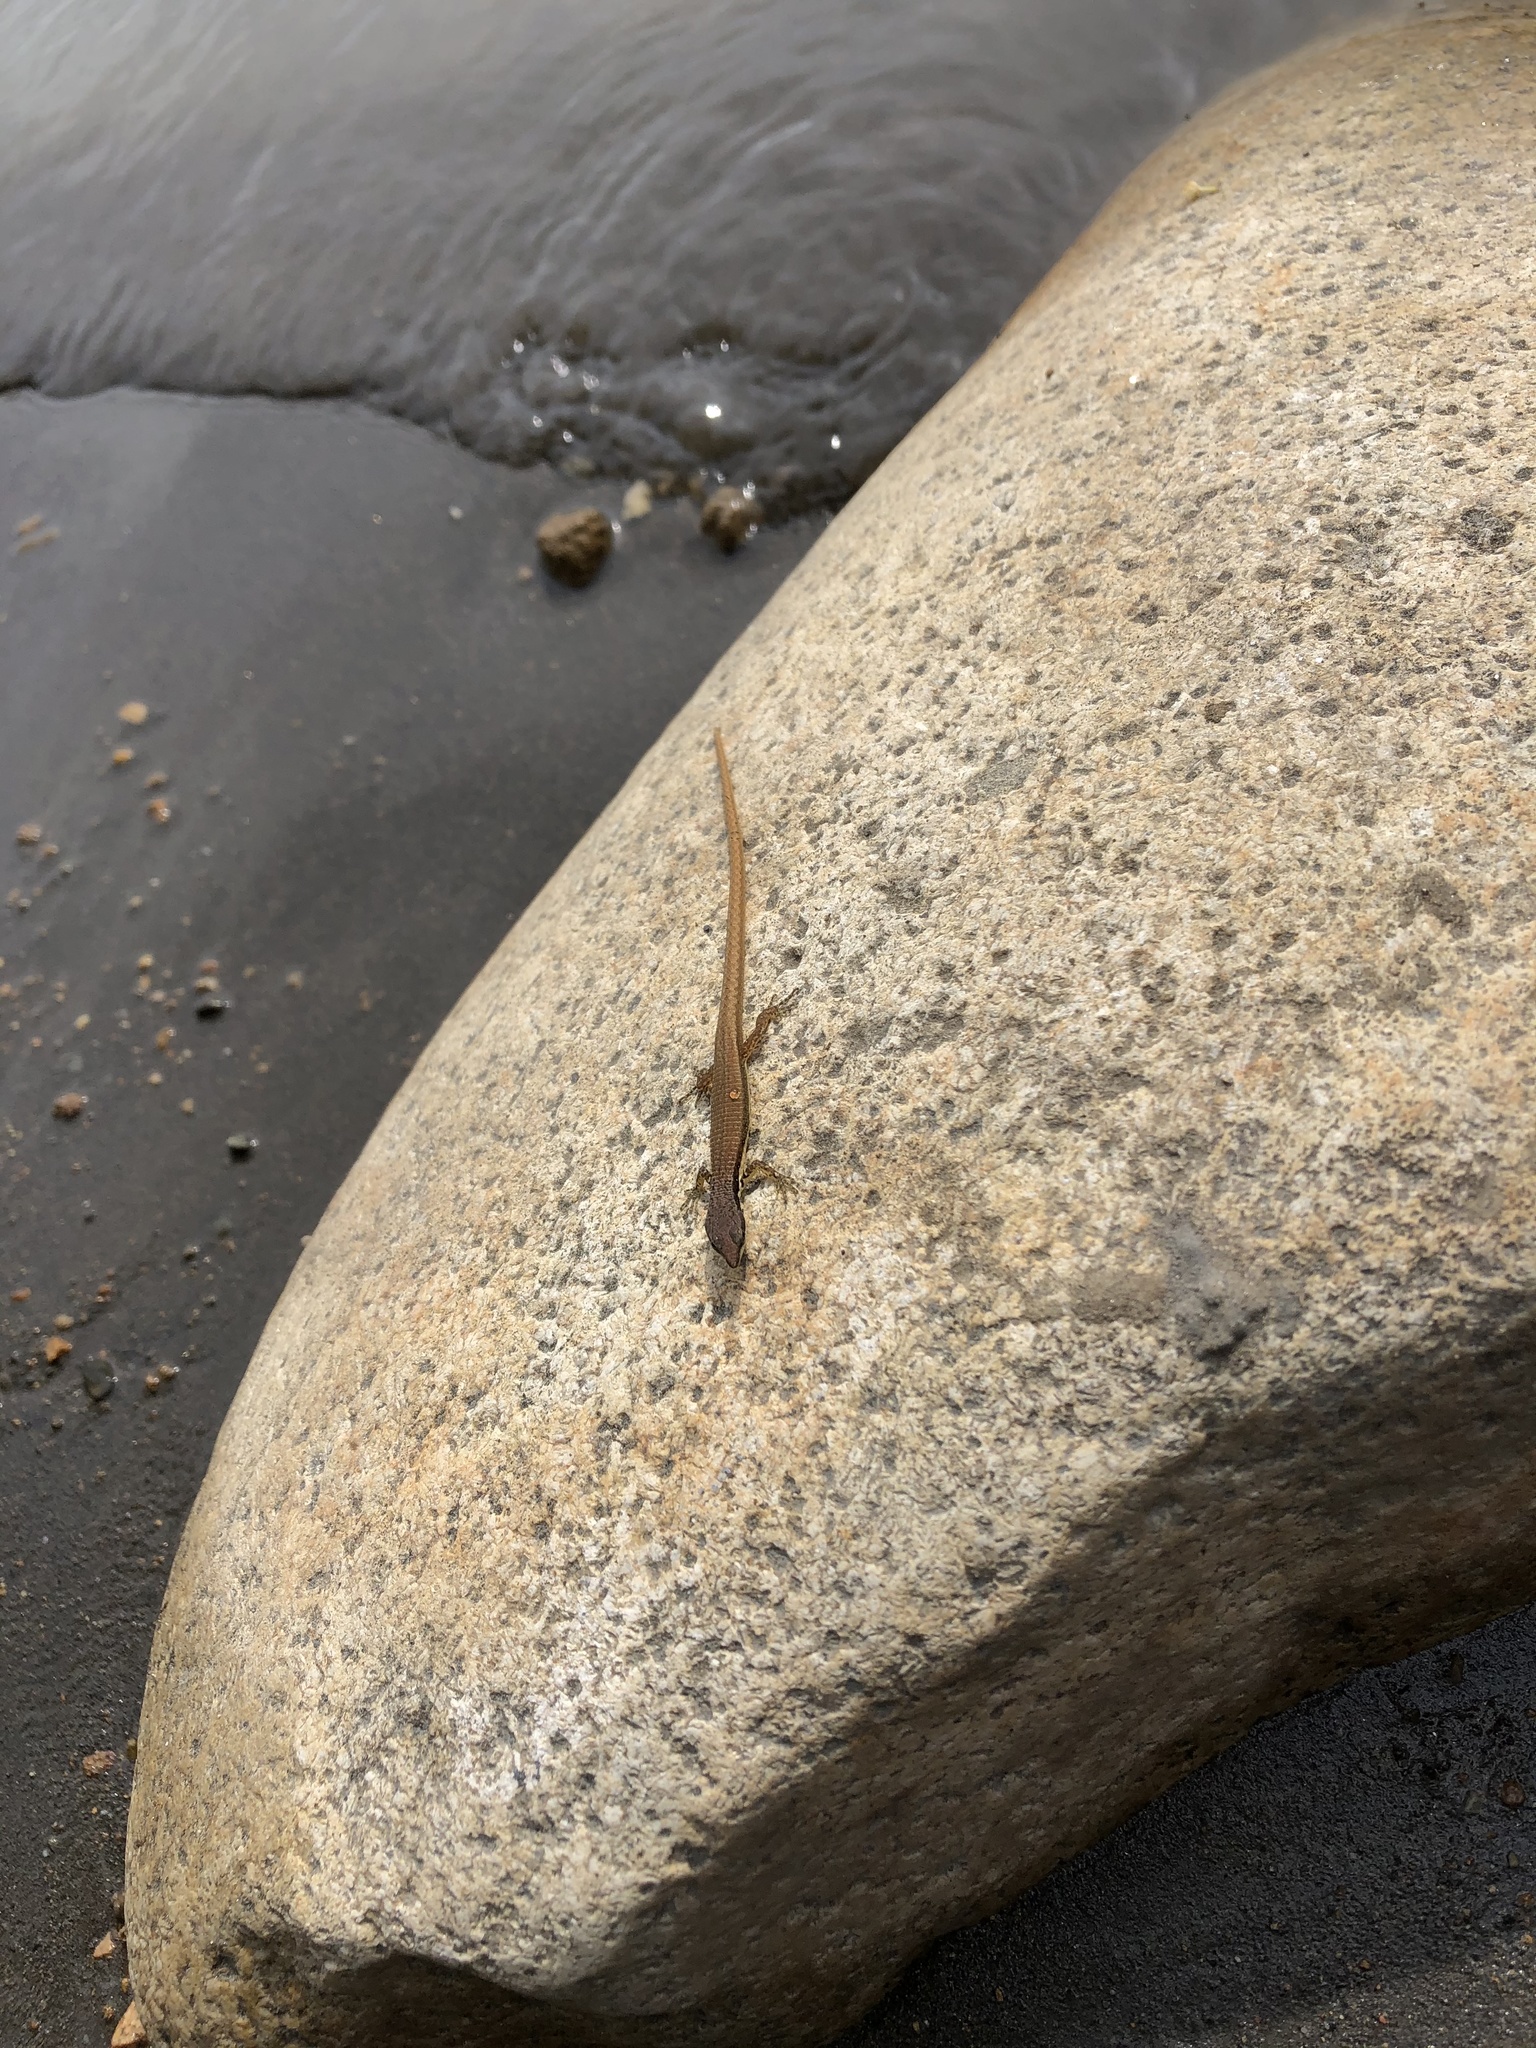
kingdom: Animalia
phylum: Chordata
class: Squamata
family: Gymnophthalmidae
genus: Cercosaura
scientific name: Cercosaura argulus
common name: White-lipped cercosaura
